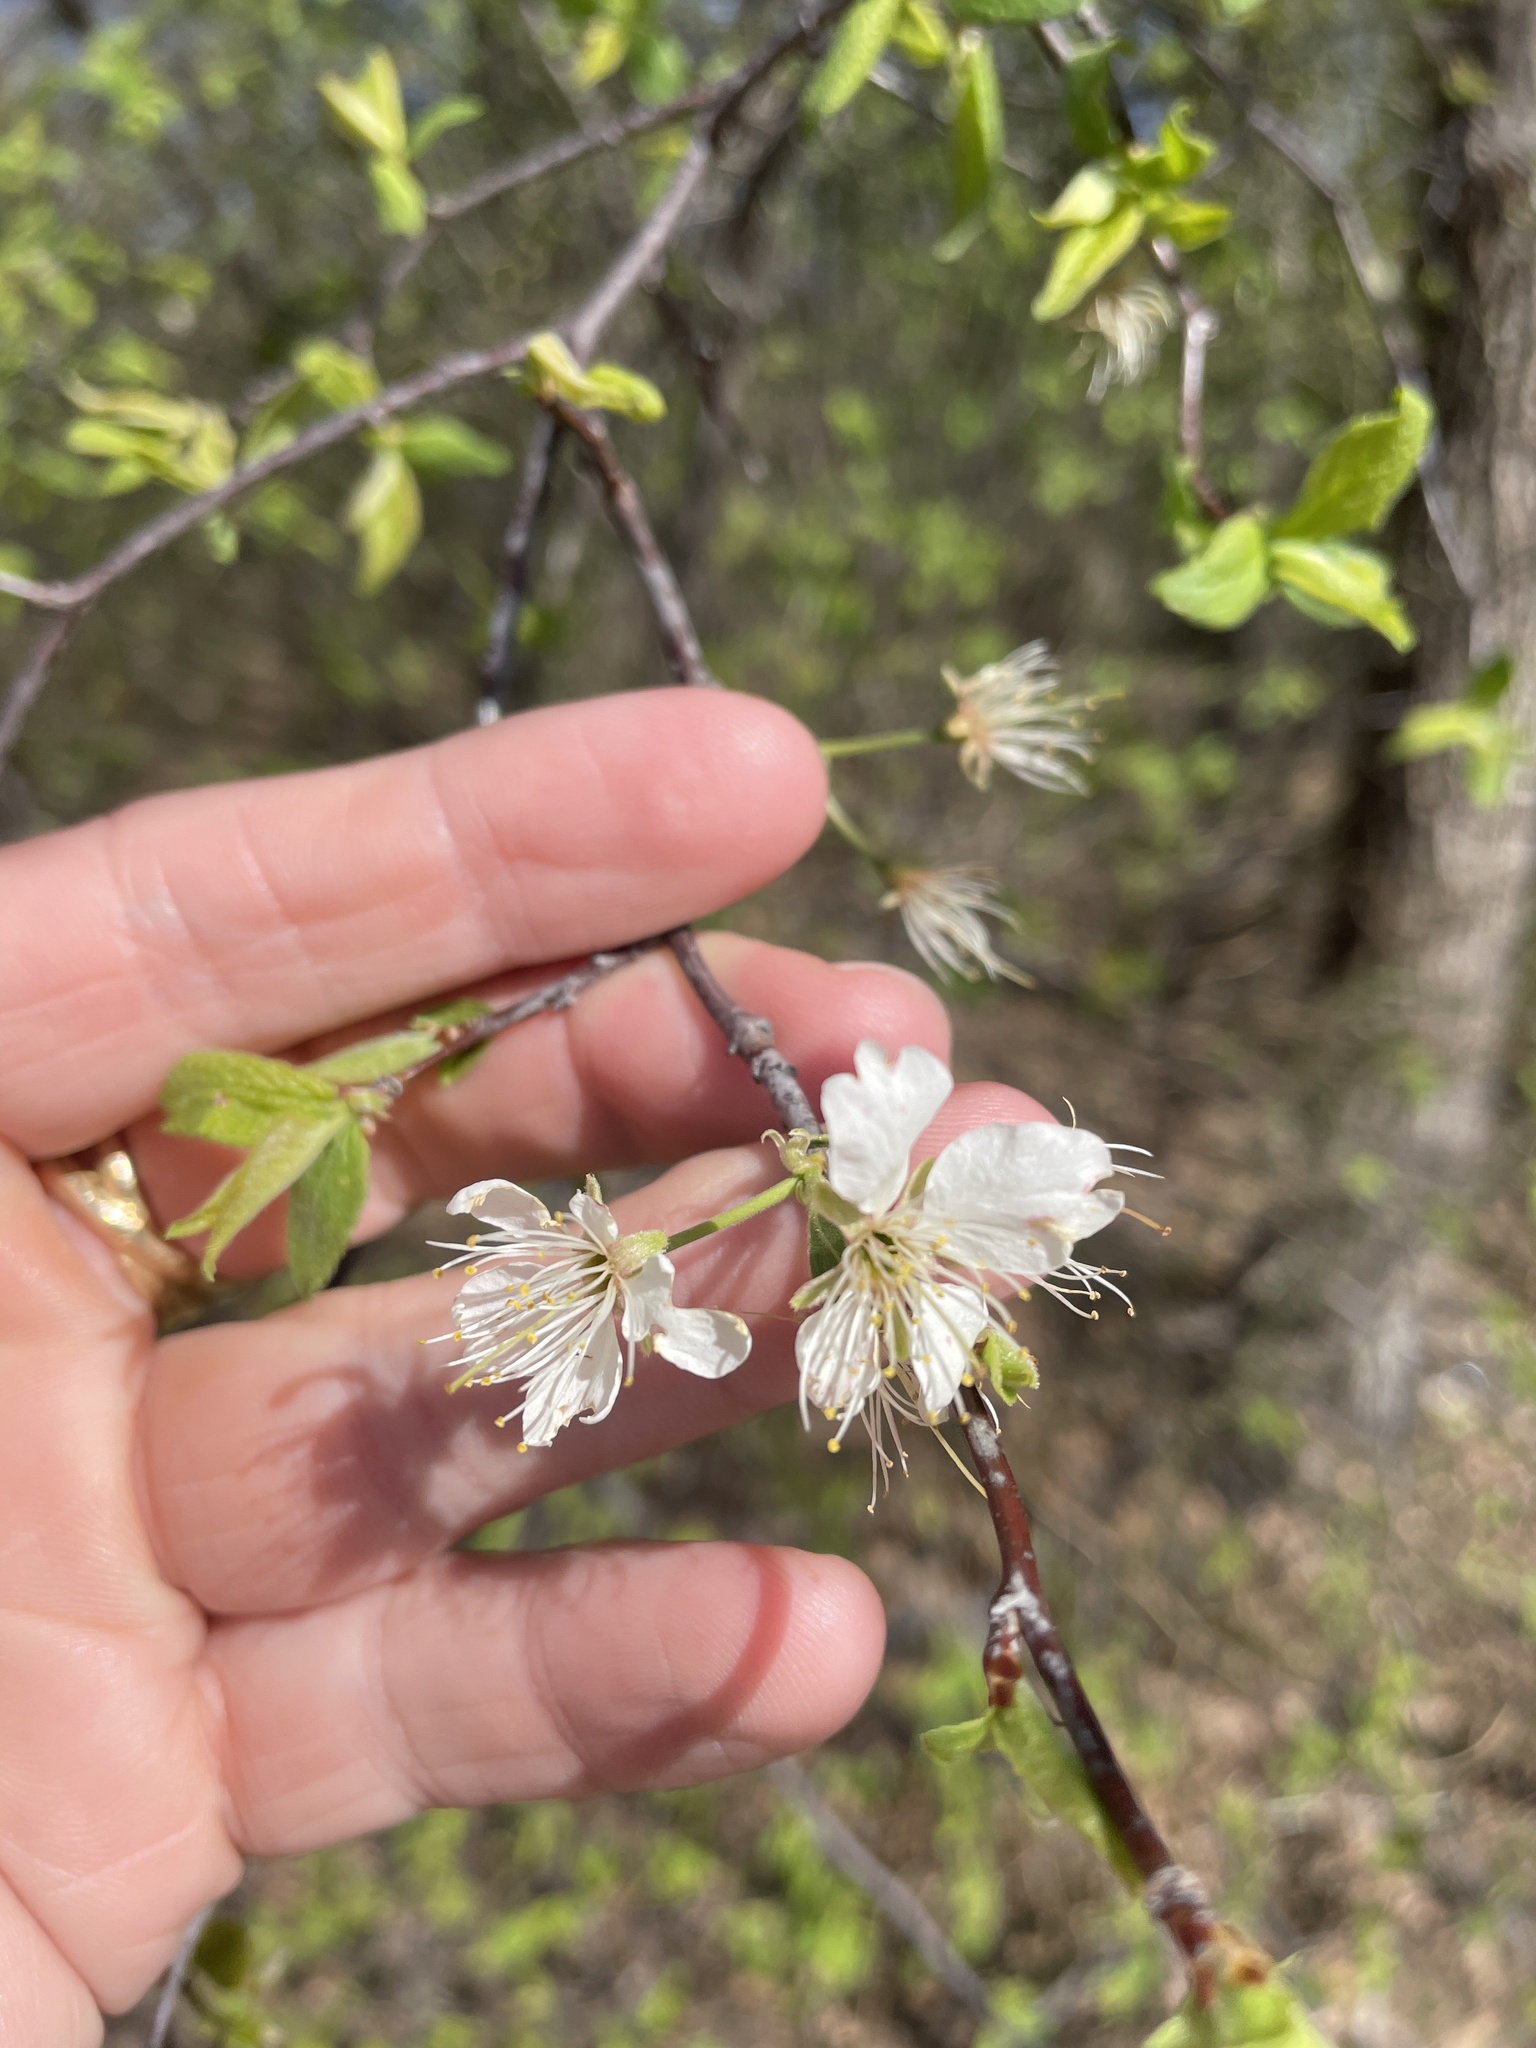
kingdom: Plantae
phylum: Tracheophyta
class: Magnoliopsida
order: Rosales
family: Rosaceae
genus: Prunus
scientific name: Prunus mexicana
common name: Mexican plum
